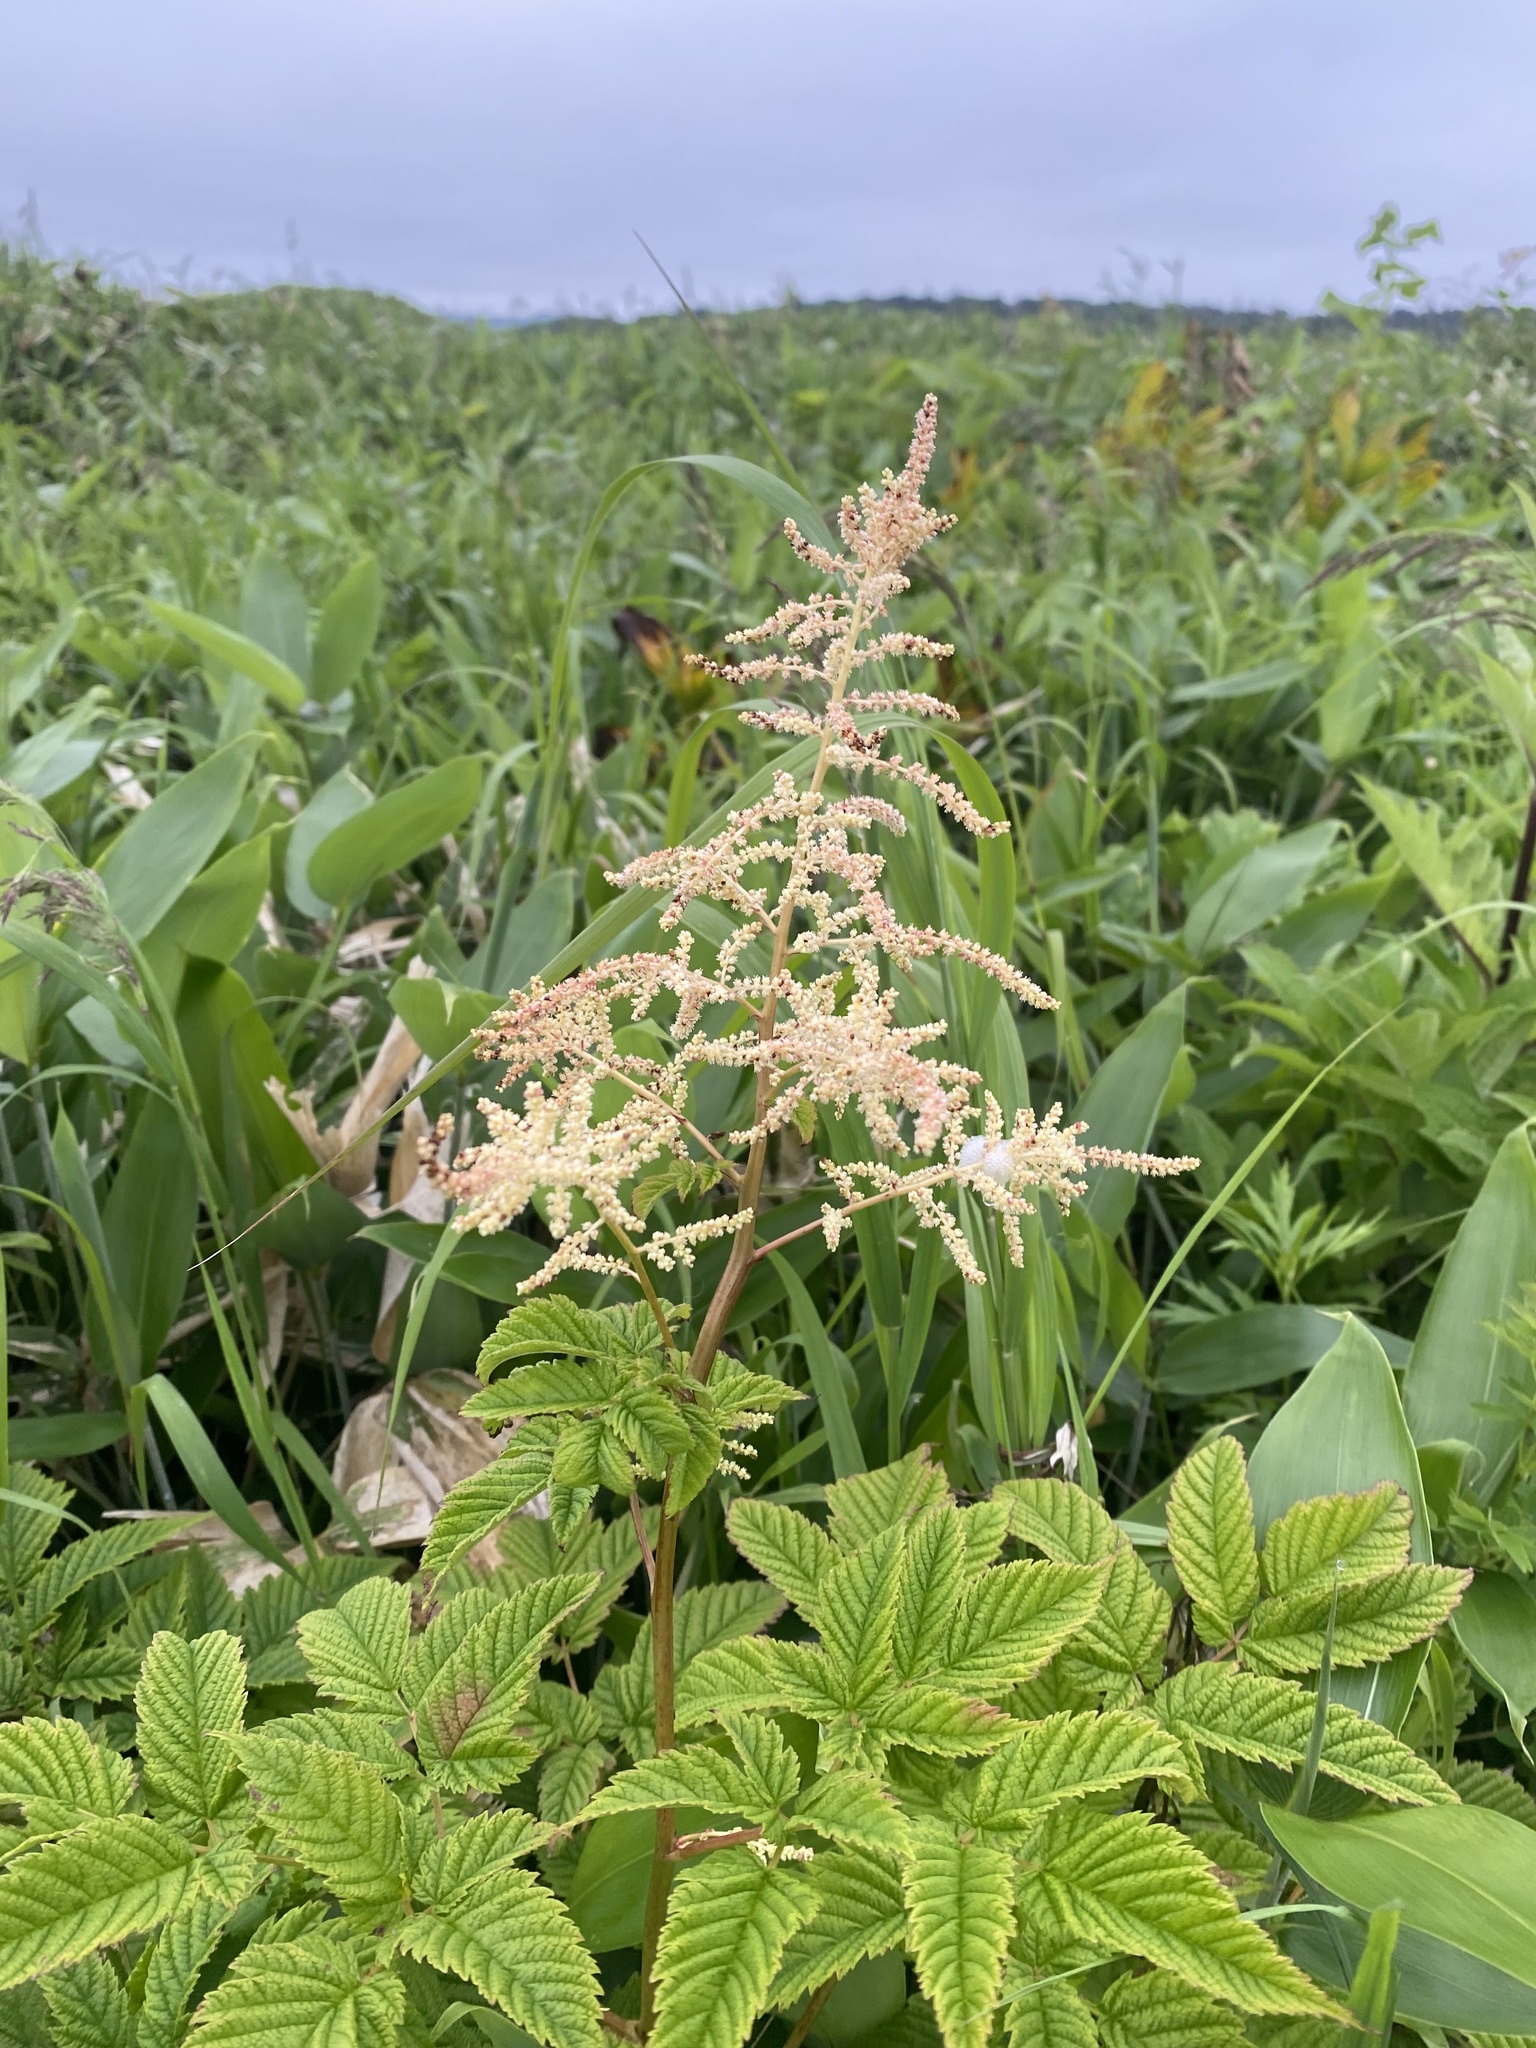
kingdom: Plantae
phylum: Tracheophyta
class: Magnoliopsida
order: Rosales
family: Rosaceae
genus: Aruncus
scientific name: Aruncus dioicus
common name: Buck's-beard
